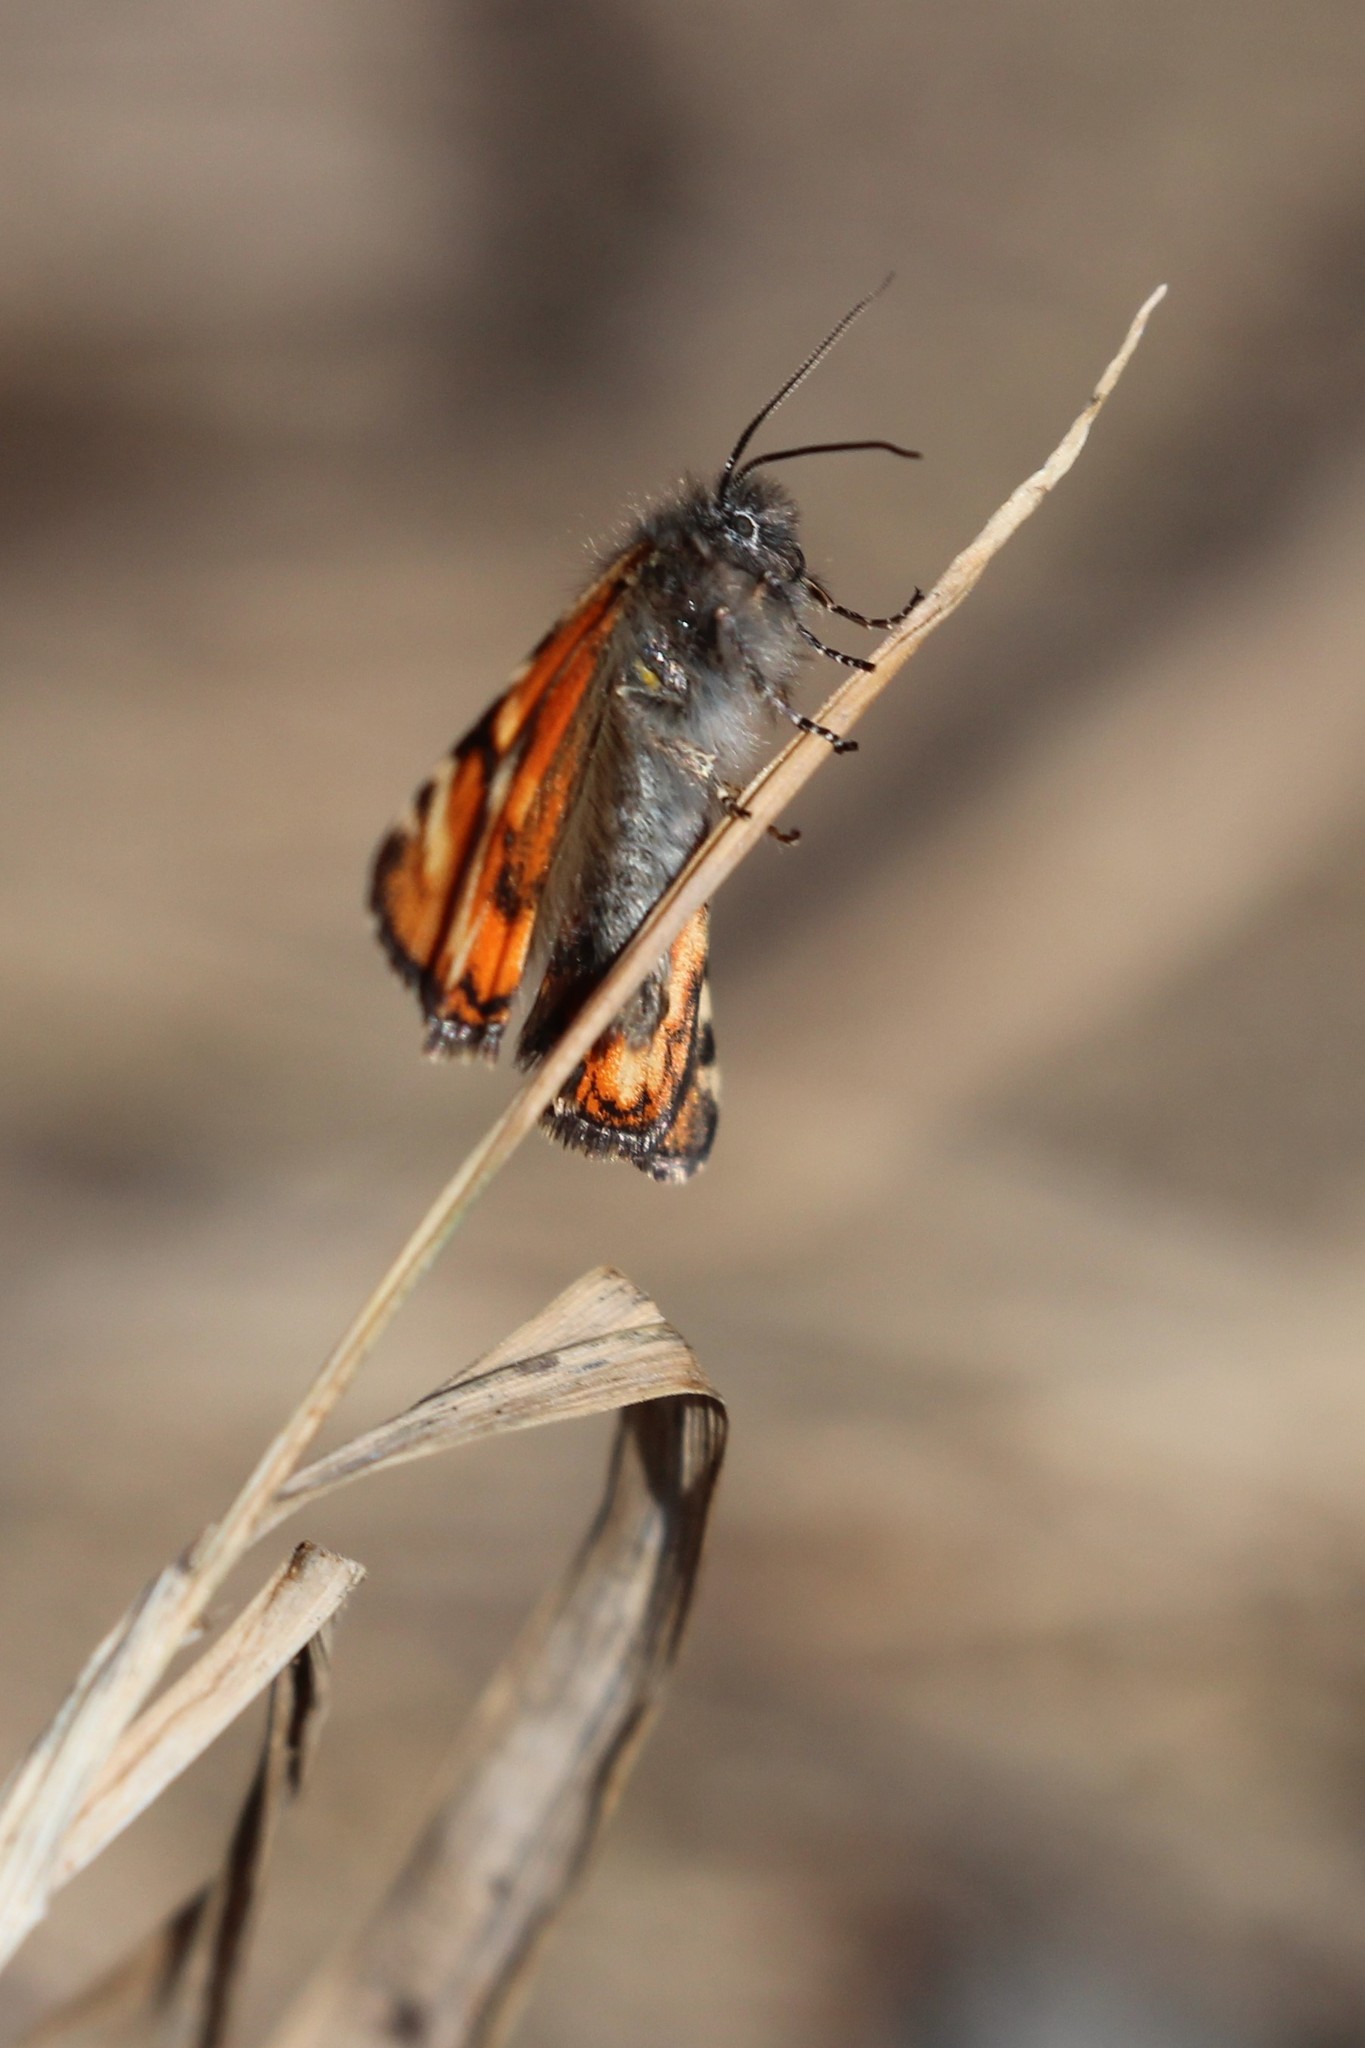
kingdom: Animalia
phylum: Arthropoda
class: Insecta
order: Lepidoptera
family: Geometridae
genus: Archiearis
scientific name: Archiearis infans
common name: First born geometer
